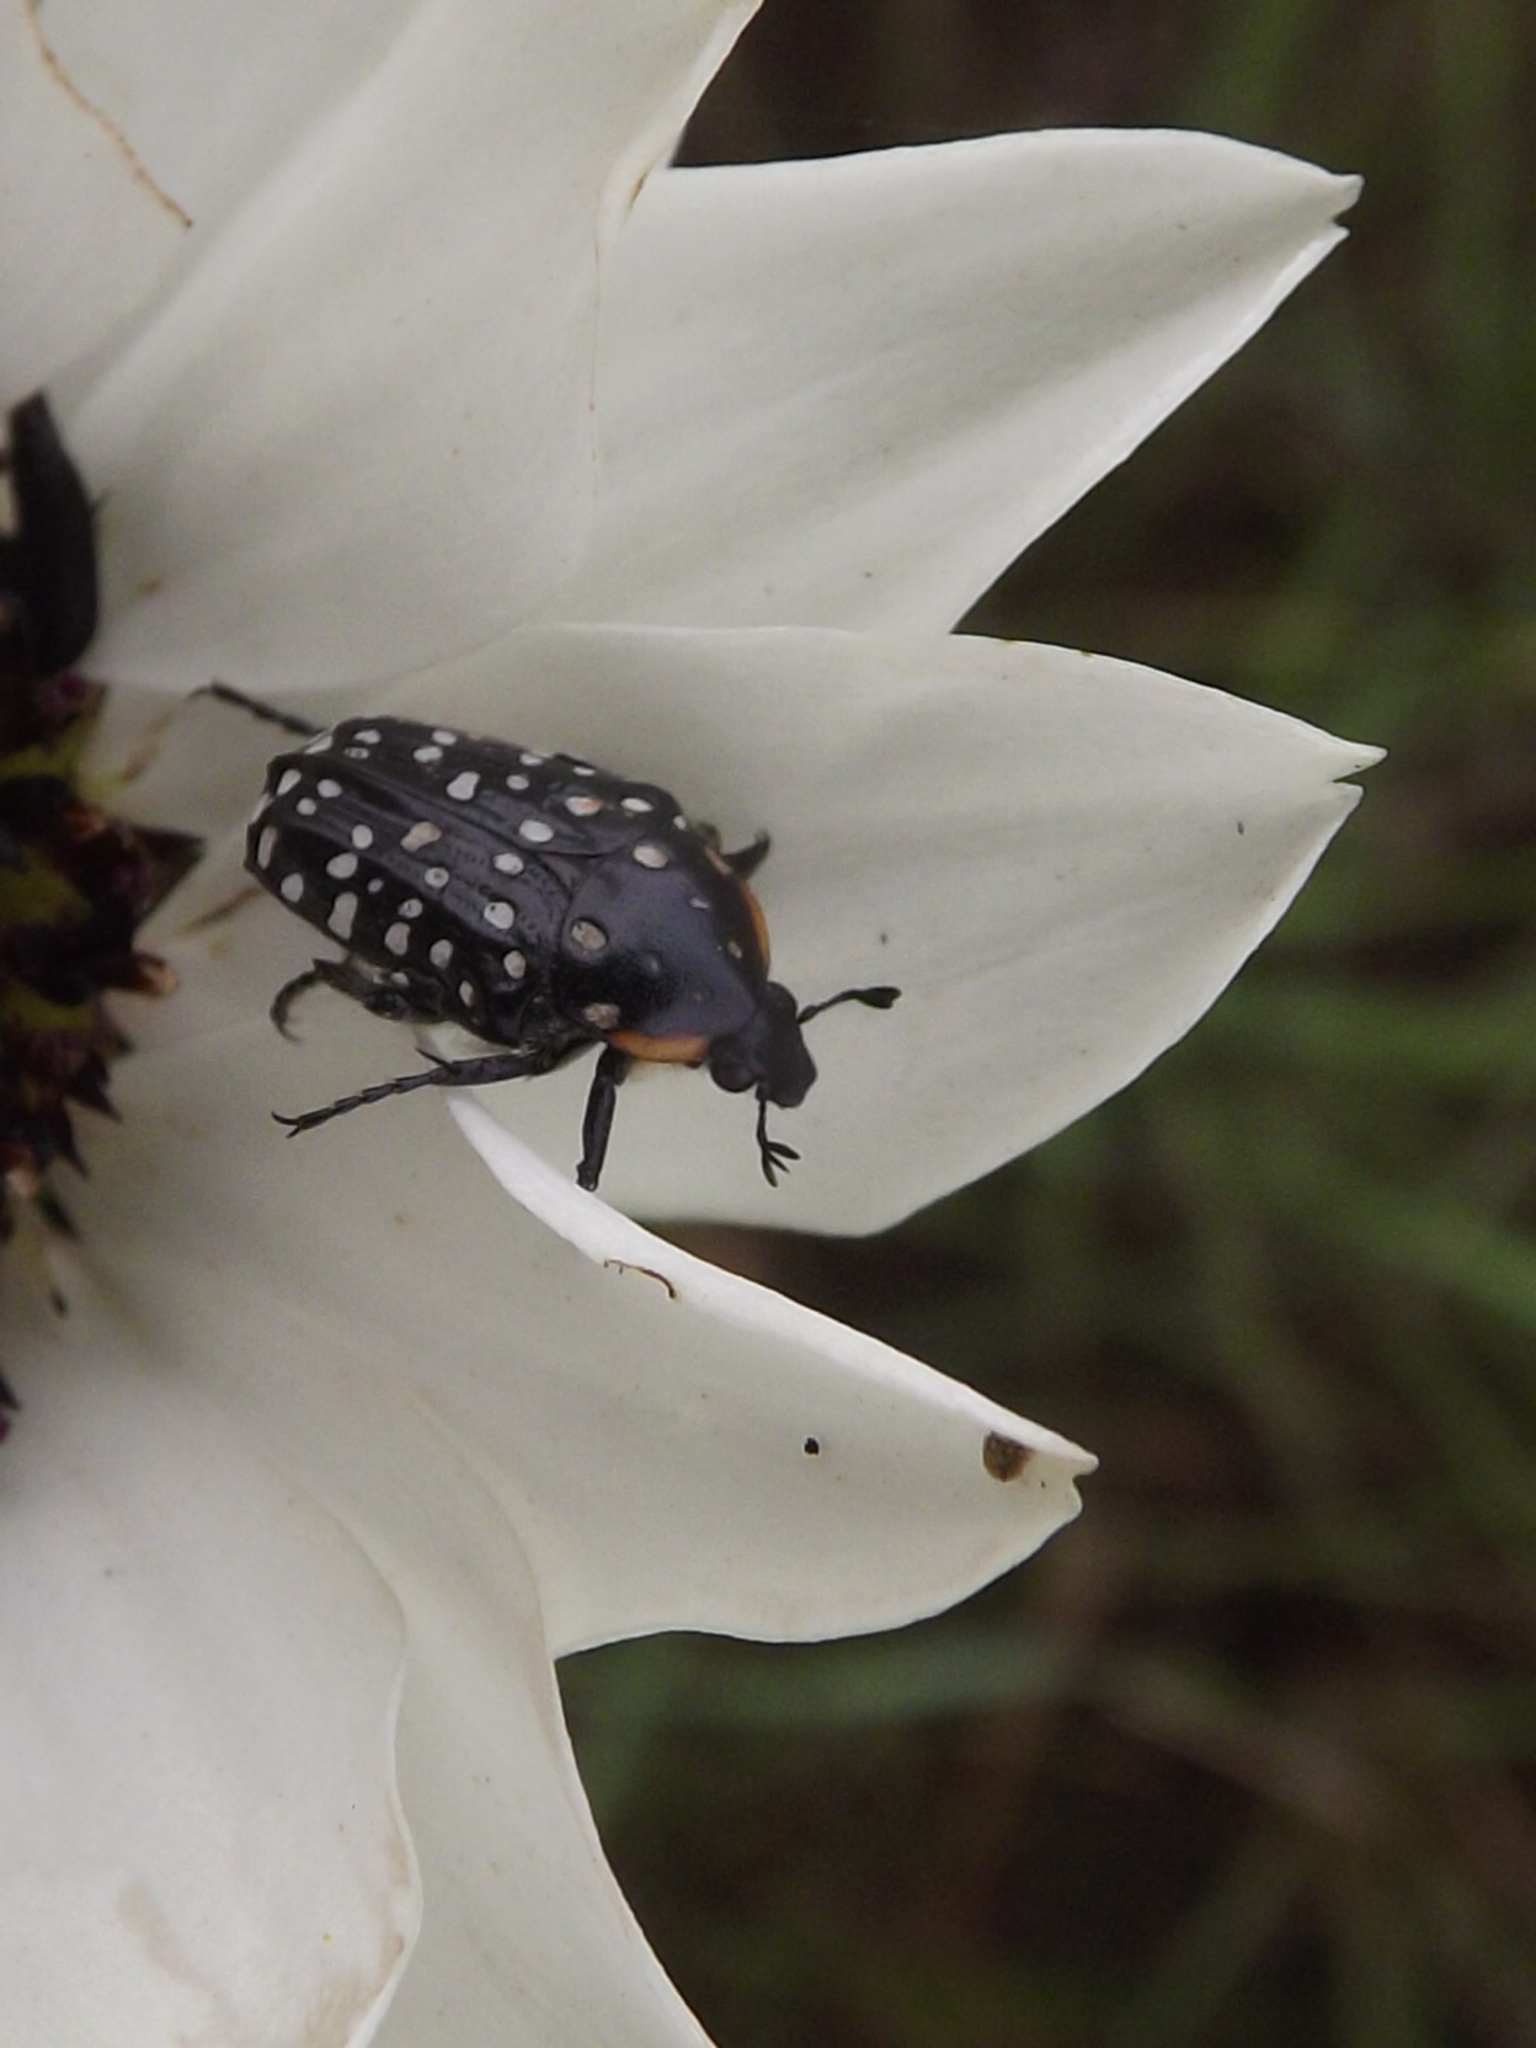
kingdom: Animalia
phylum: Arthropoda
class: Insecta
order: Coleoptera
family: Scarabaeidae
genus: Oxythyrea
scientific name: Oxythyrea
